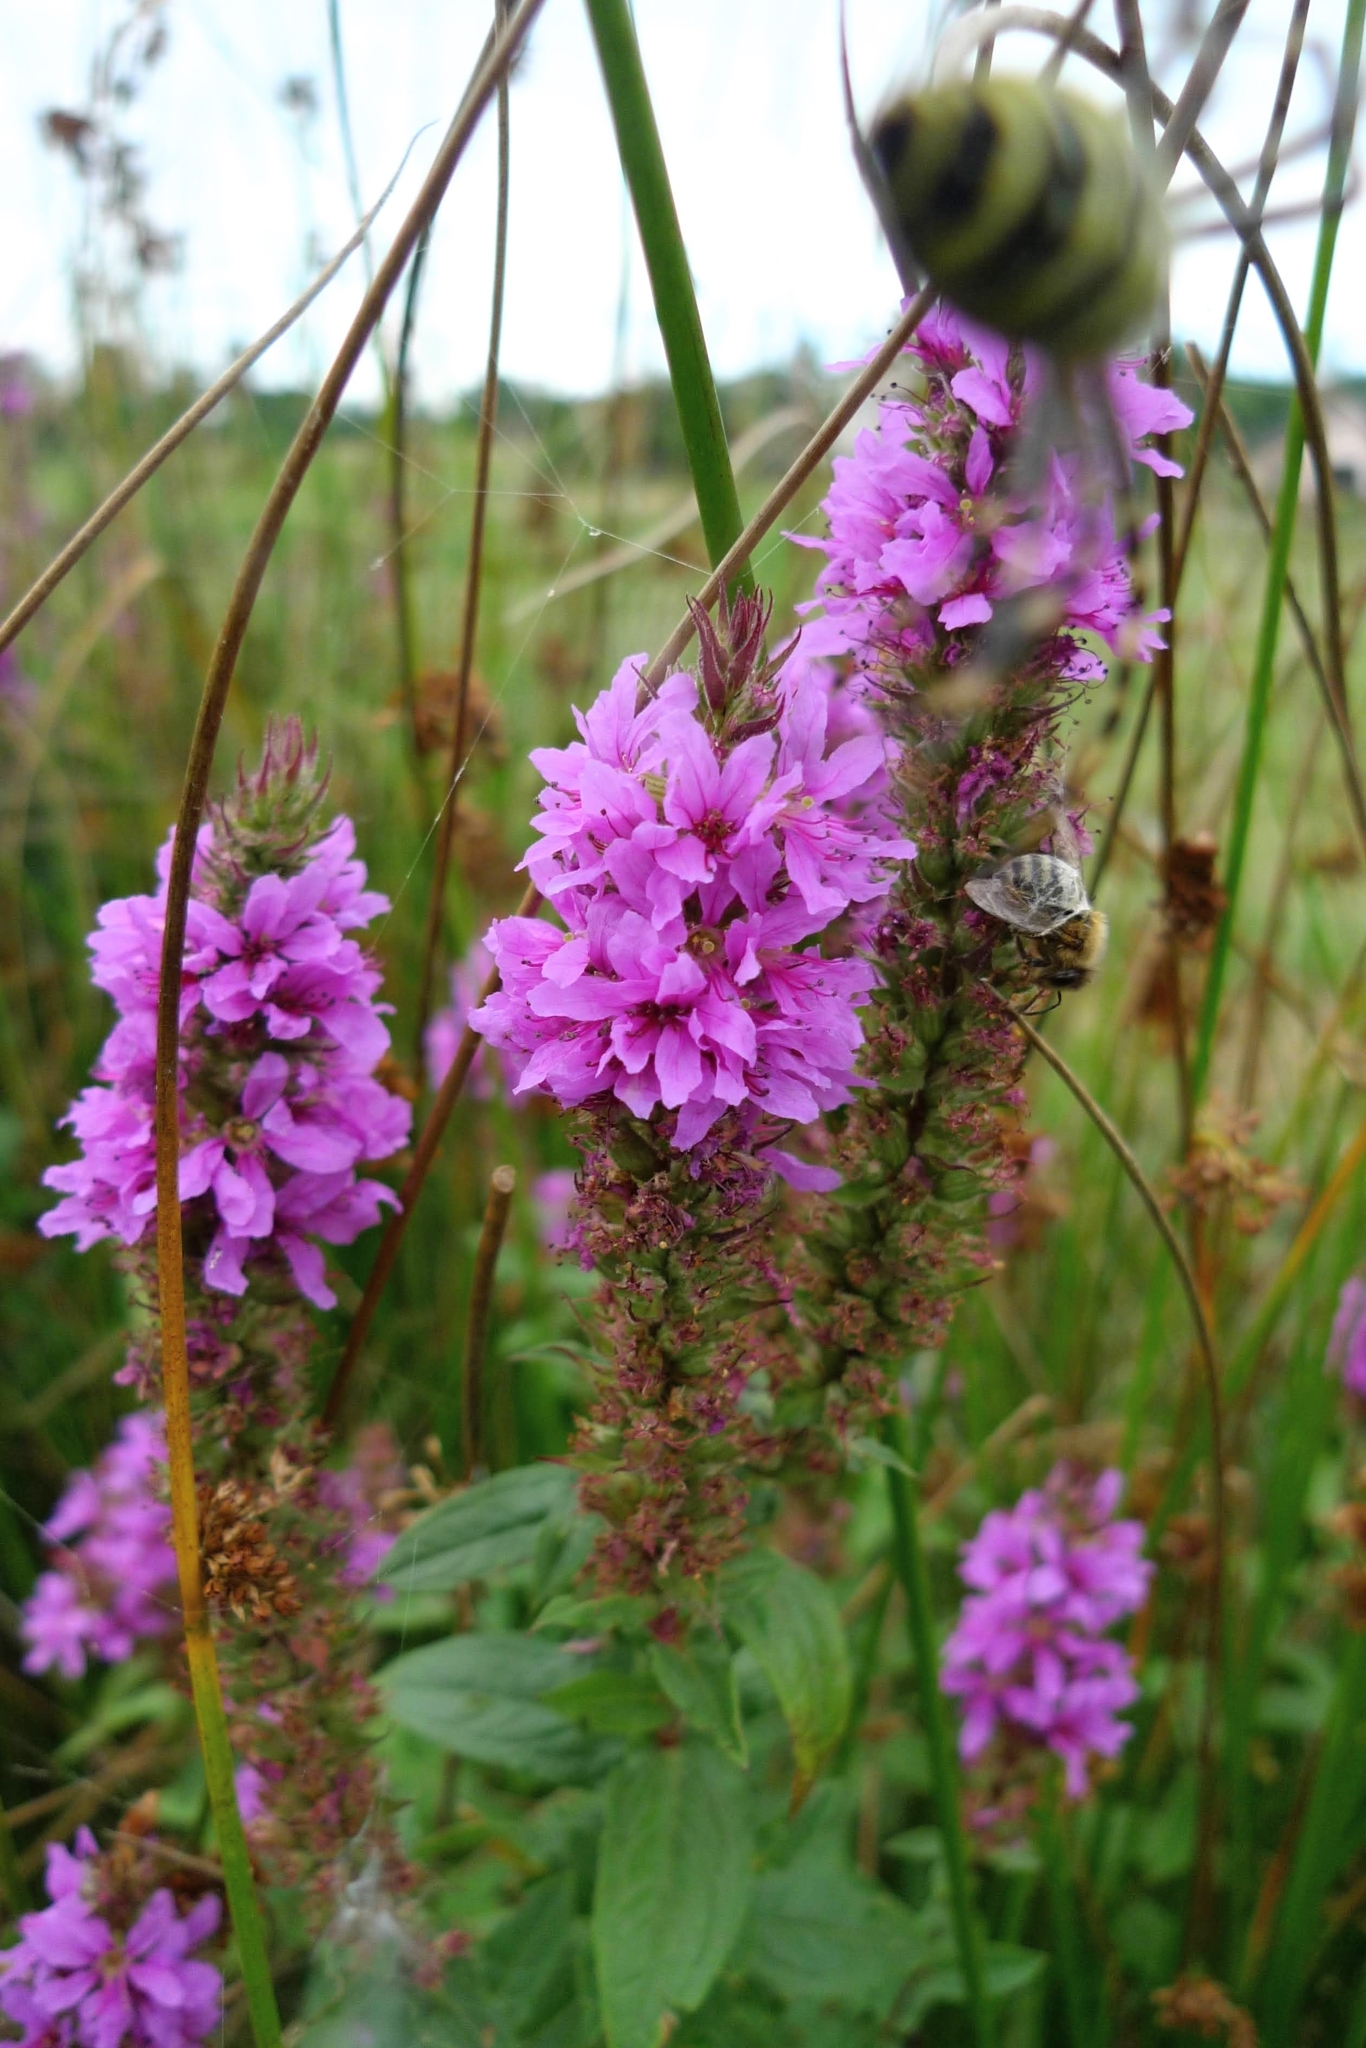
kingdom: Plantae
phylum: Tracheophyta
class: Magnoliopsida
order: Myrtales
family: Lythraceae
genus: Lythrum
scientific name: Lythrum salicaria
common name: Purple loosestrife
